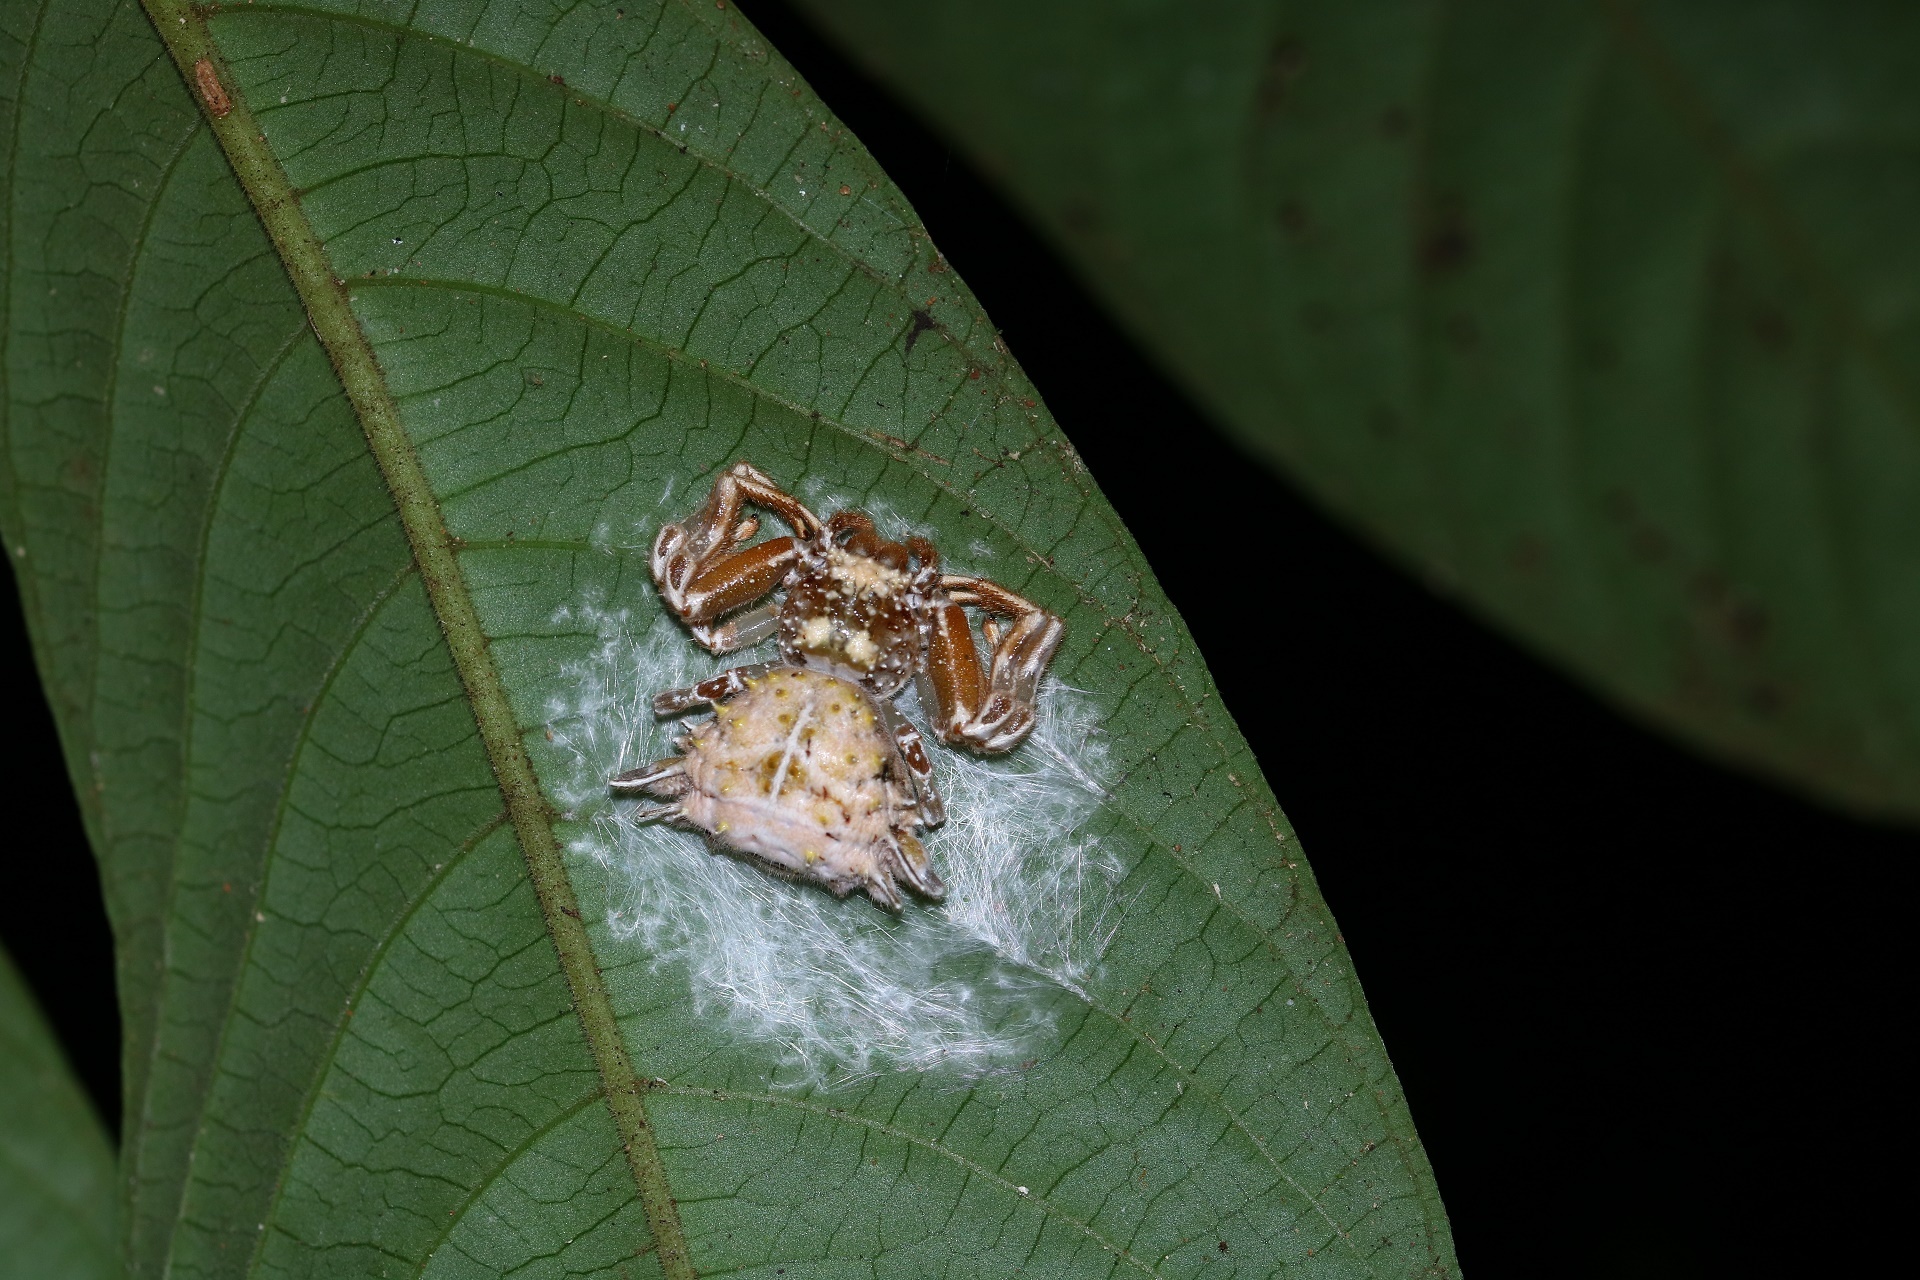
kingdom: Animalia
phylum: Arthropoda
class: Arachnida
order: Araneae
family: Thomisidae
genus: Phrynarachne
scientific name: Phrynarachne jobiensis
